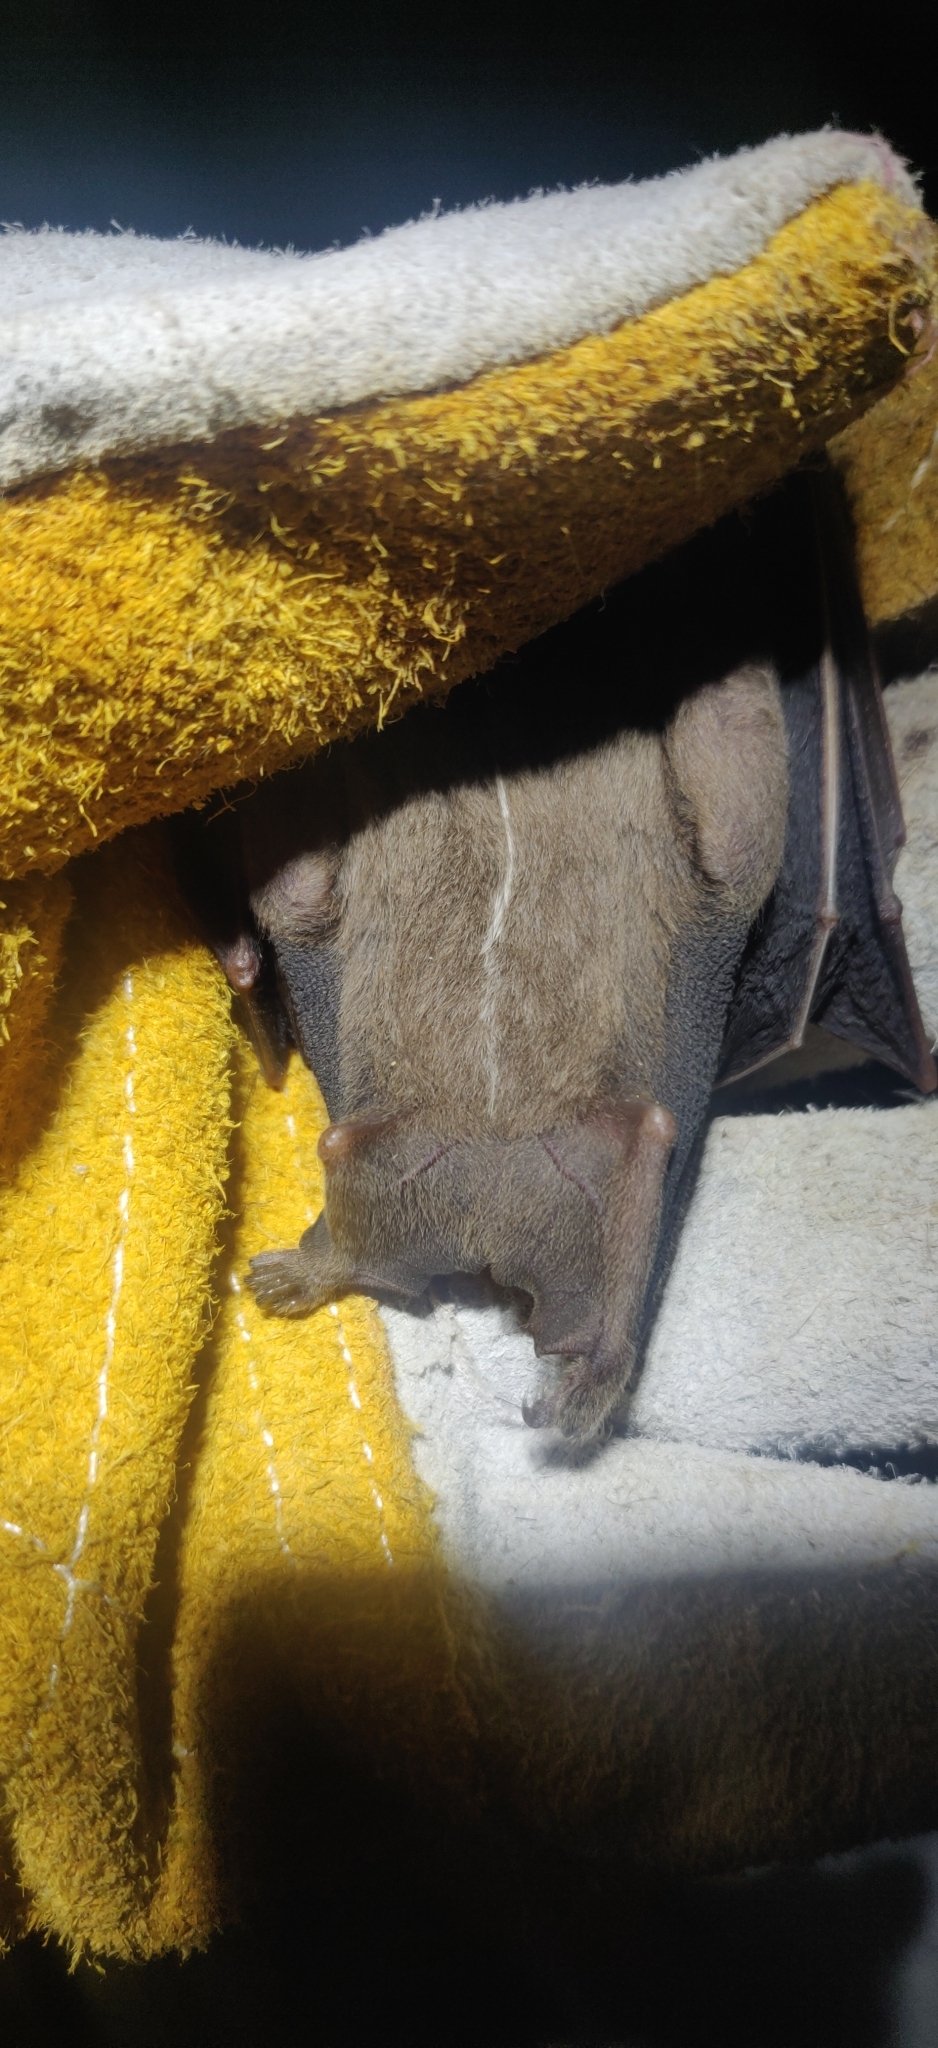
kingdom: Animalia
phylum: Chordata
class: Mammalia
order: Chiroptera
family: Phyllostomidae
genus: Uroderma
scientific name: Uroderma bilobatum
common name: Common tent-making bat
